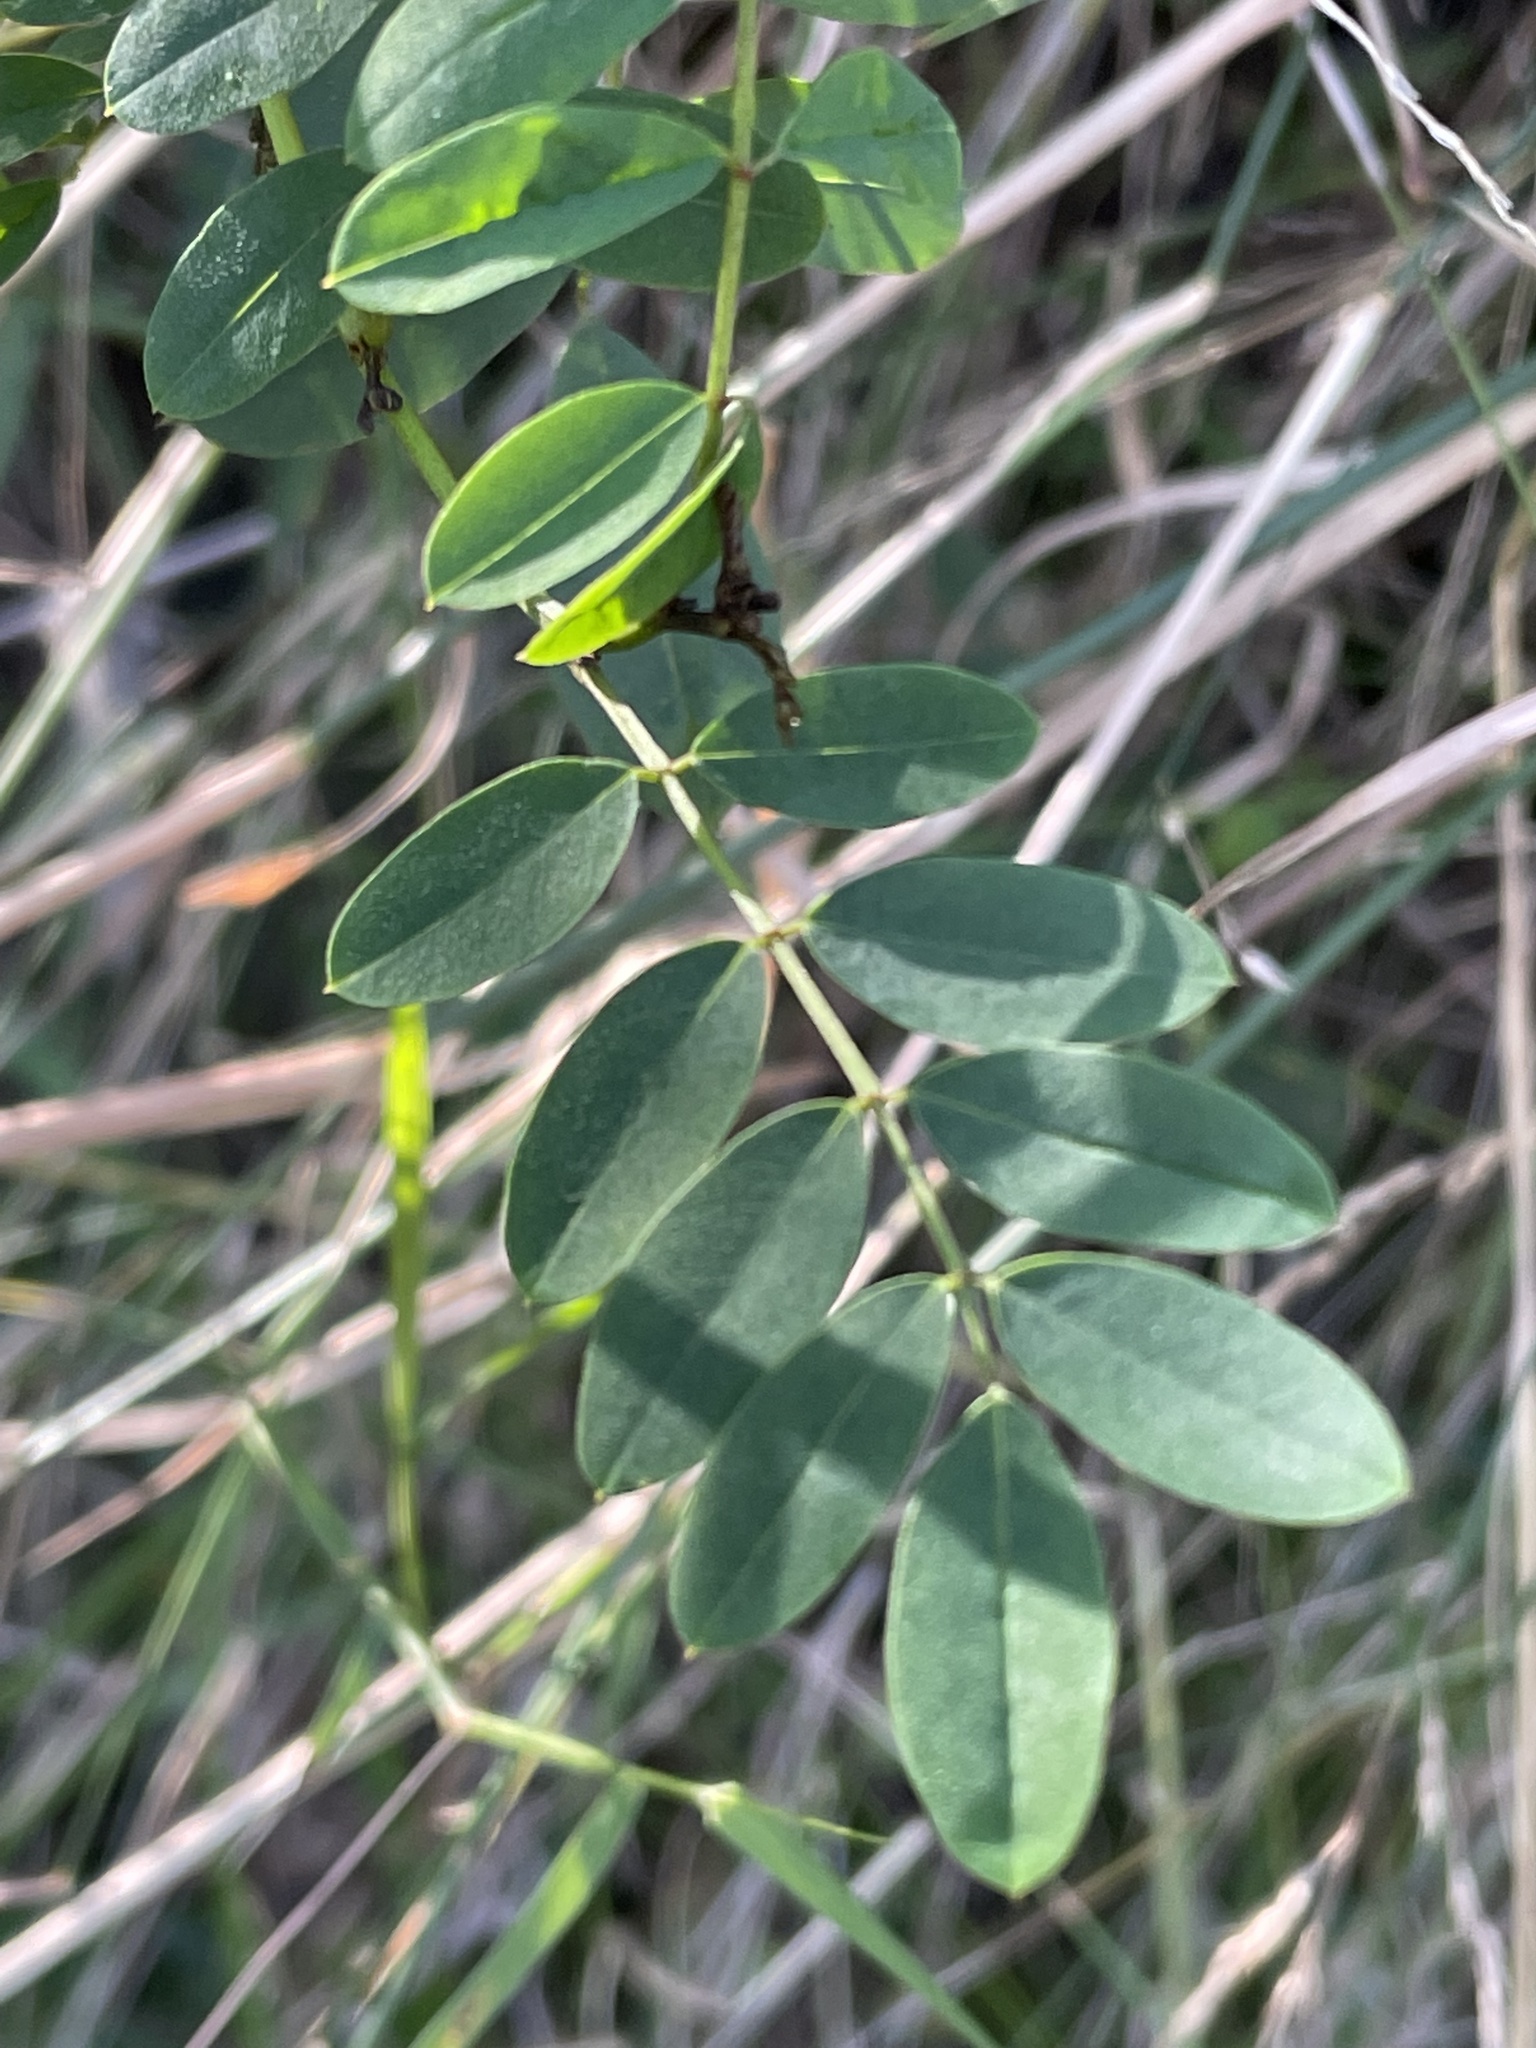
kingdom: Plantae
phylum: Tracheophyta
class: Magnoliopsida
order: Fabales
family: Fabaceae
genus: Indigofera
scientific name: Indigofera australis
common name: Australian indigo
